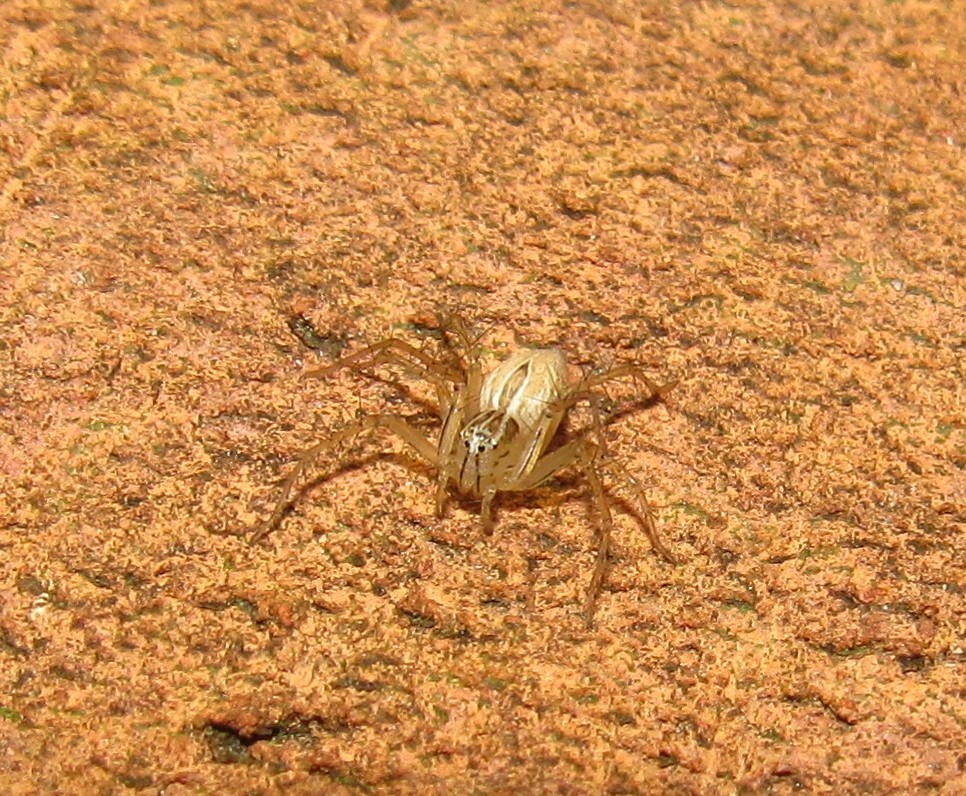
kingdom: Animalia
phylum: Arthropoda
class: Arachnida
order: Araneae
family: Oxyopidae
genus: Oxyopes
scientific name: Oxyopes salticus
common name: Lynx spiders
